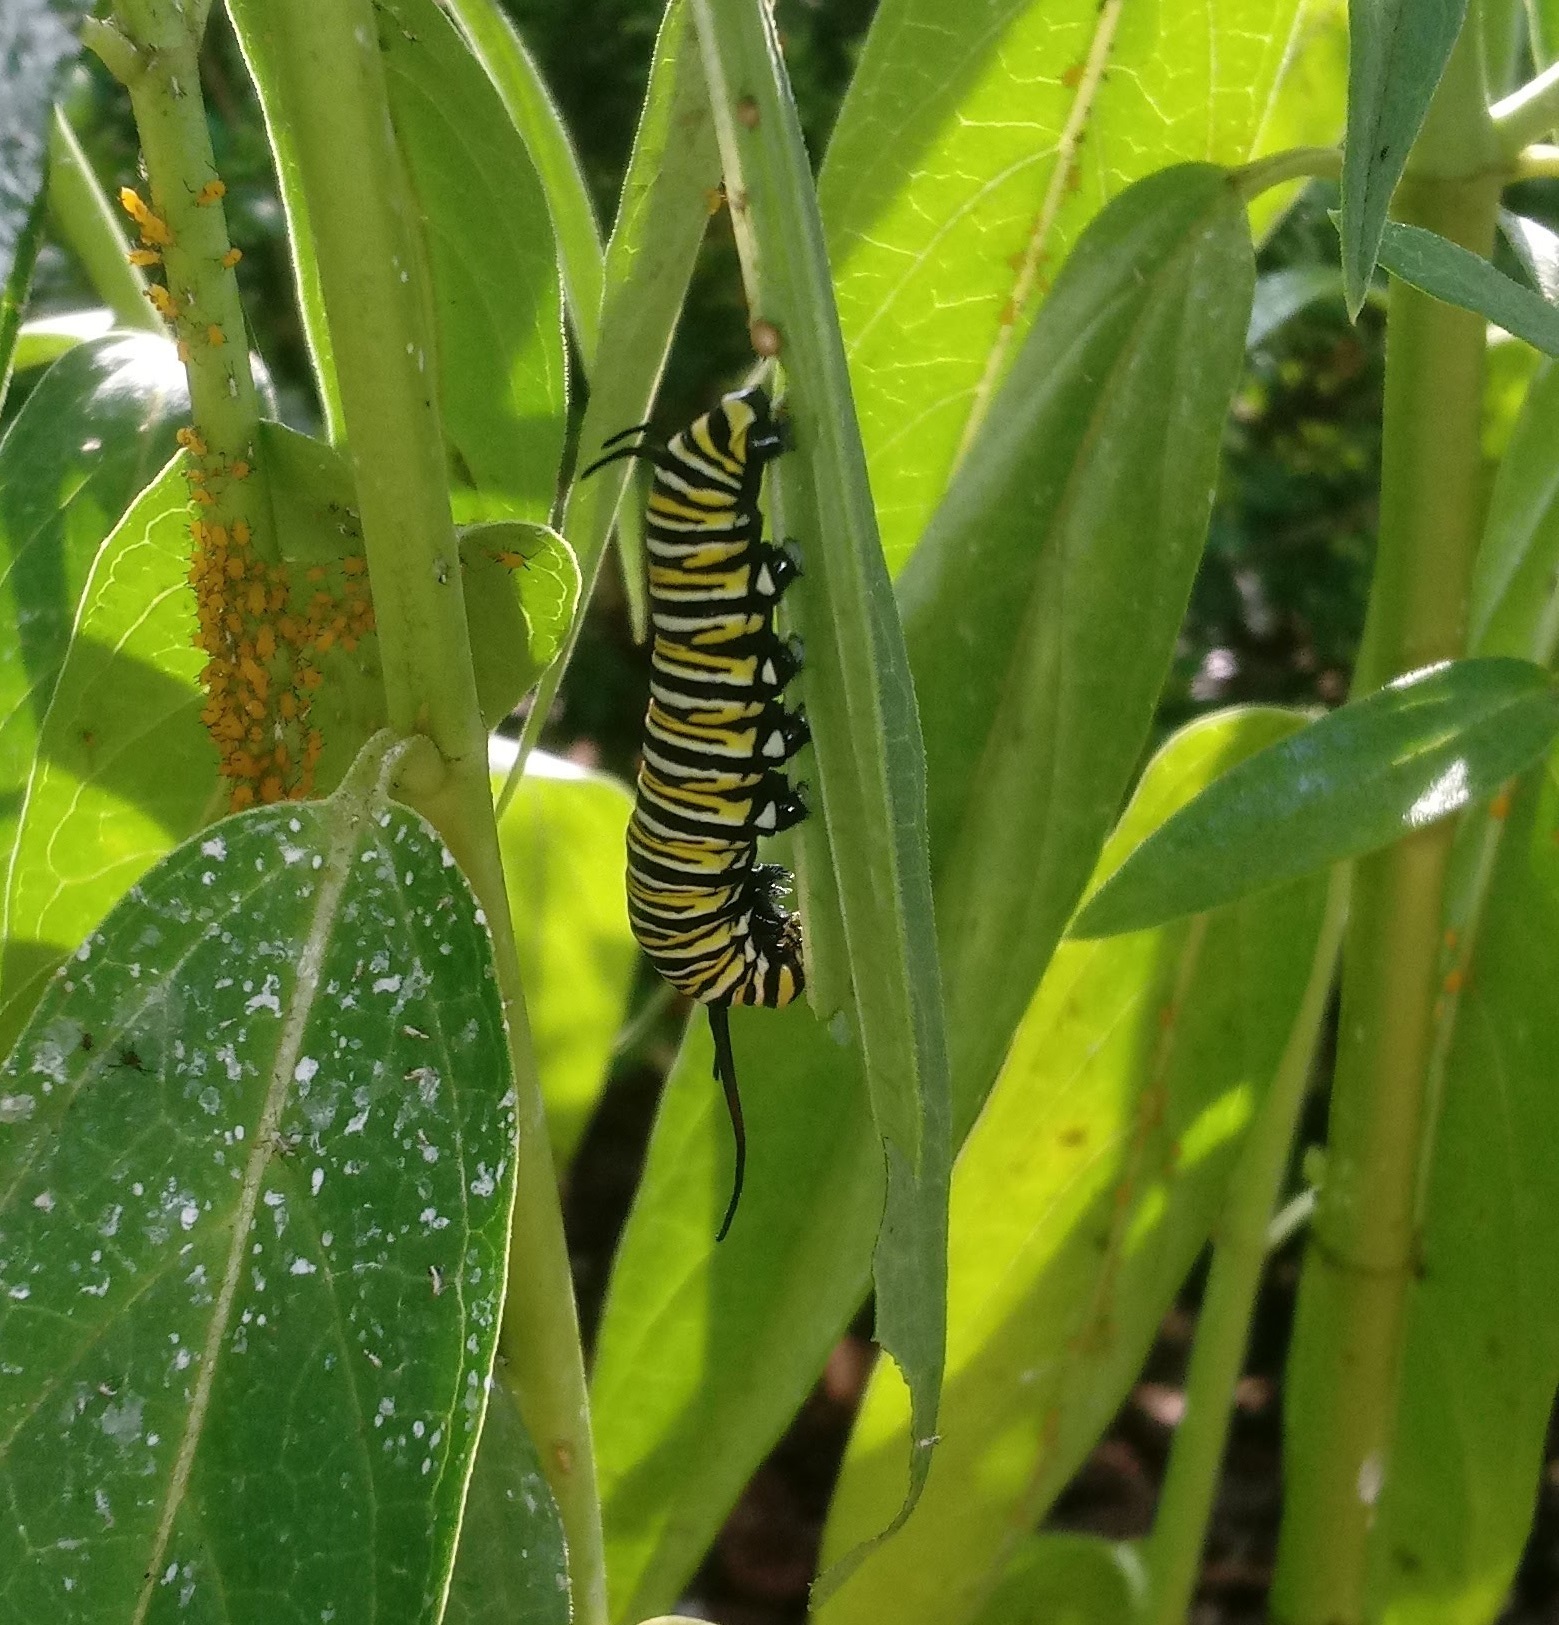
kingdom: Animalia
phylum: Arthropoda
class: Insecta
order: Lepidoptera
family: Nymphalidae
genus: Danaus
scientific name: Danaus plexippus
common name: Monarch
